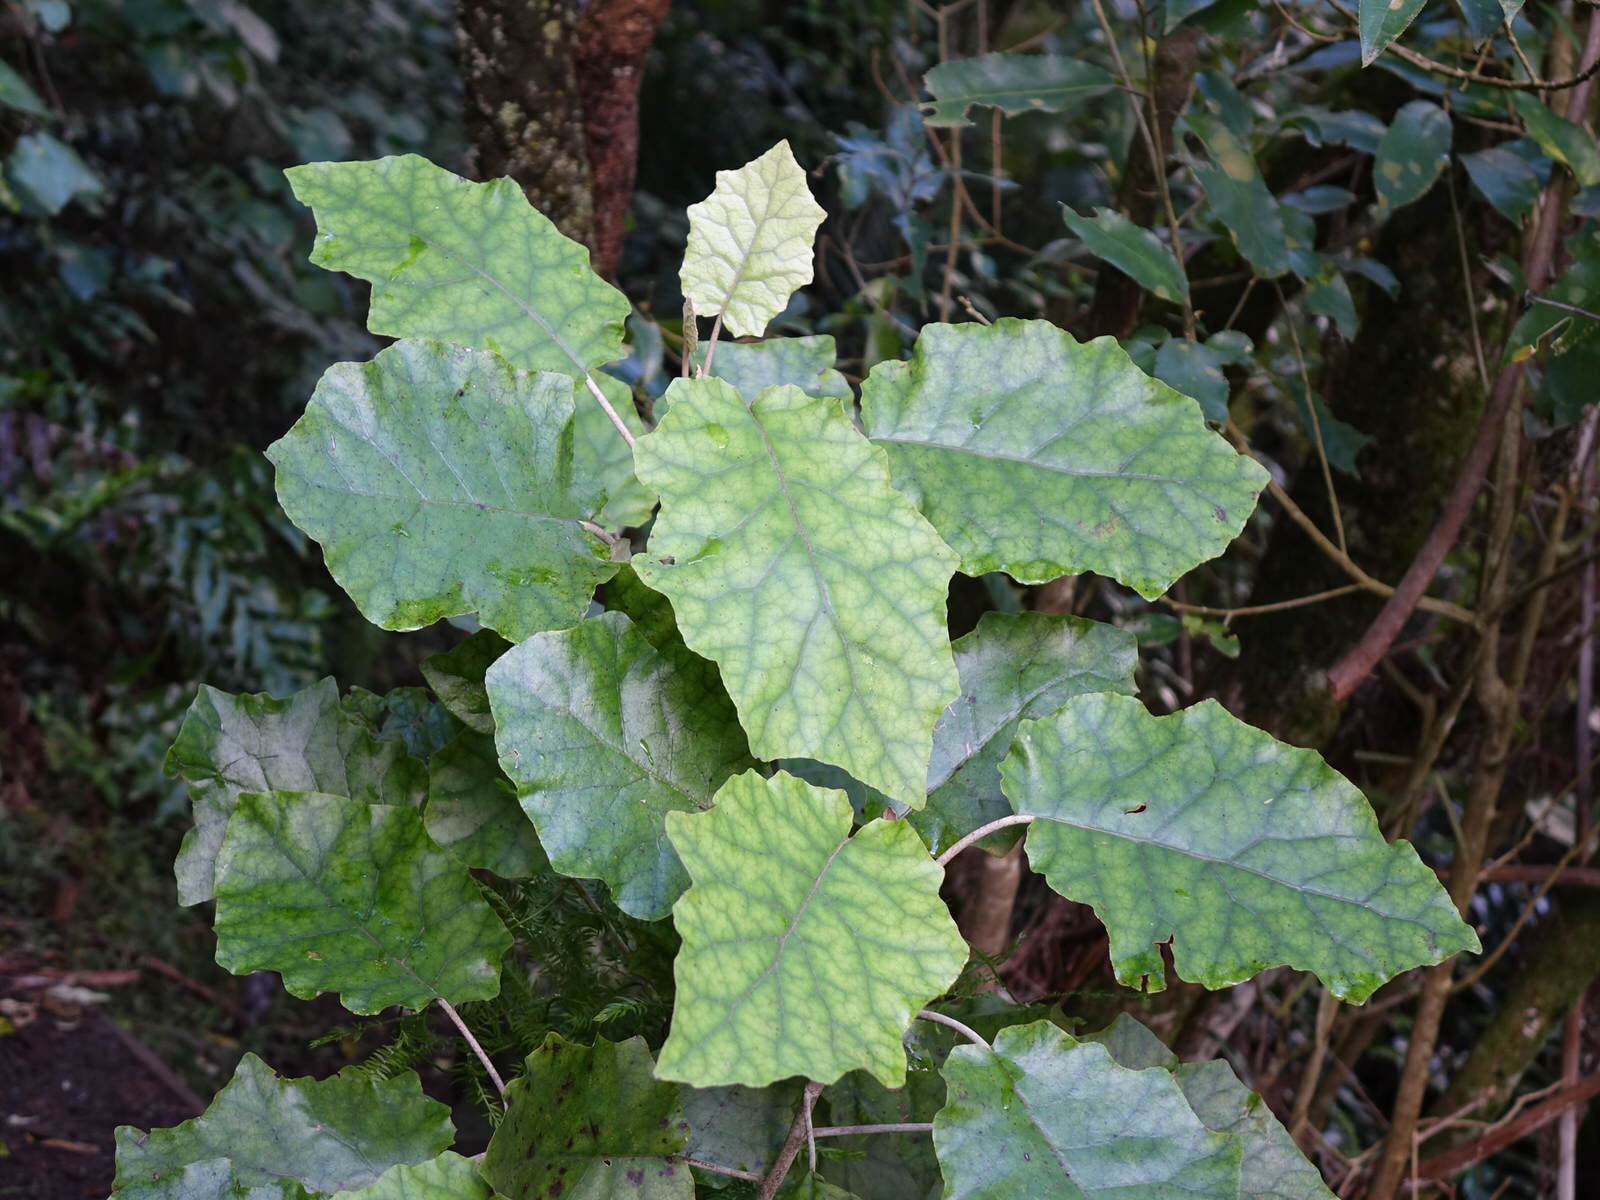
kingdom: Plantae
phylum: Tracheophyta
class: Magnoliopsida
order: Asterales
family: Asteraceae
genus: Brachyglottis
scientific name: Brachyglottis repanda
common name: Hedge ragwort
